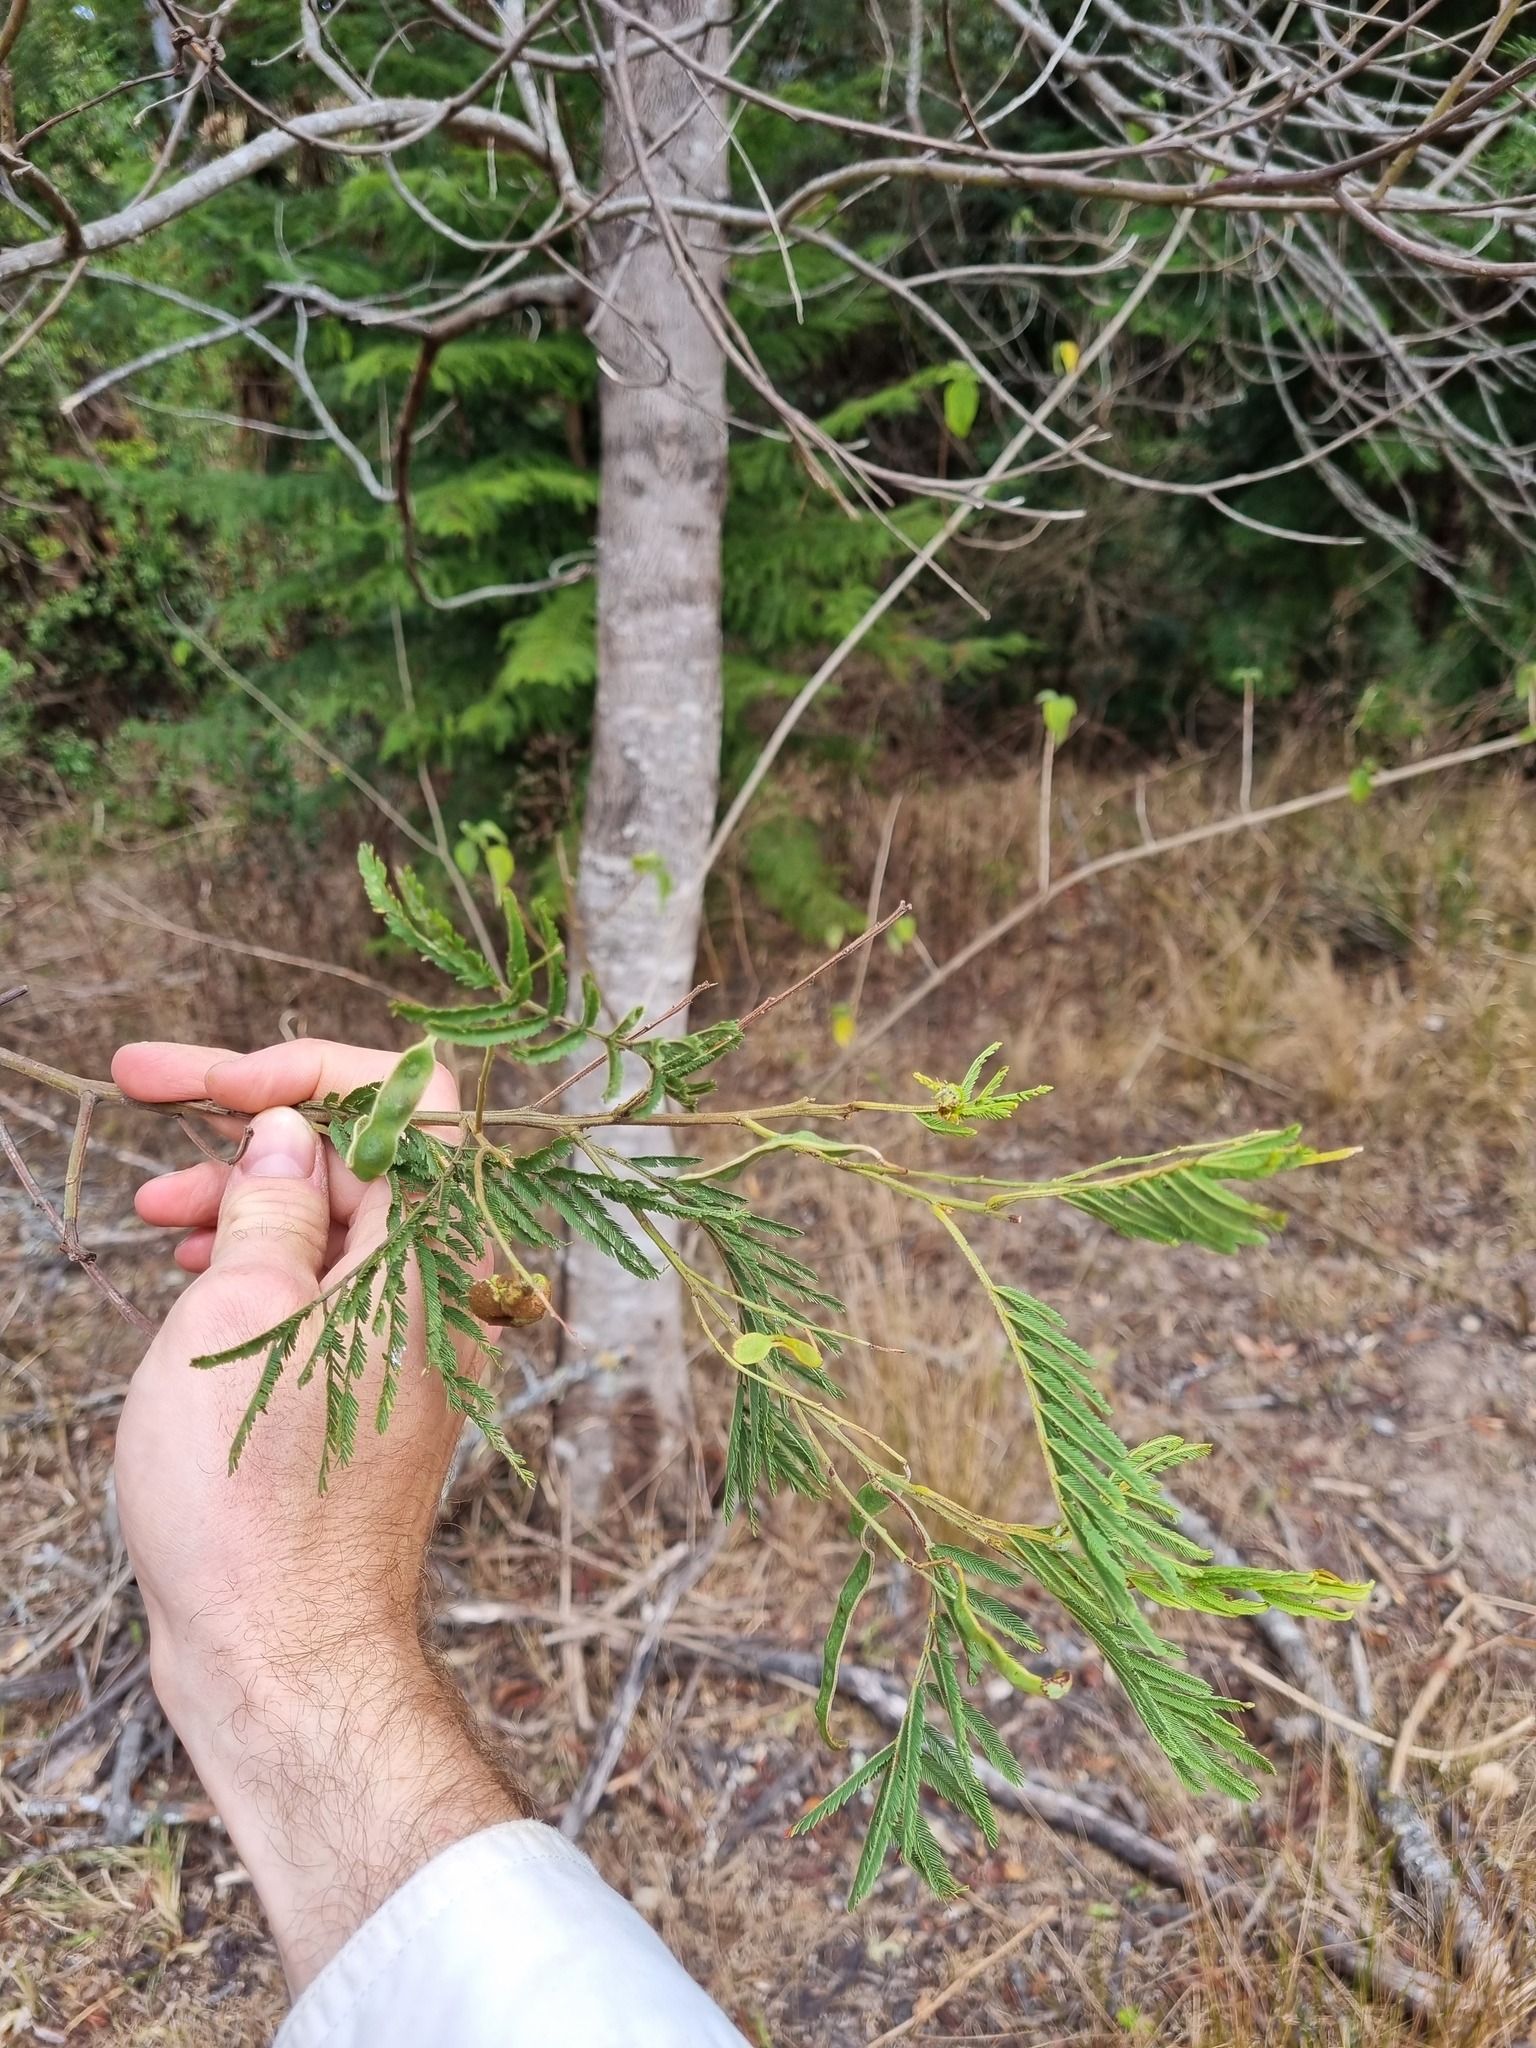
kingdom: Plantae
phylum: Tracheophyta
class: Magnoliopsida
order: Fabales
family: Fabaceae
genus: Acacia
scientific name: Acacia irrorata
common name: Green wattle
